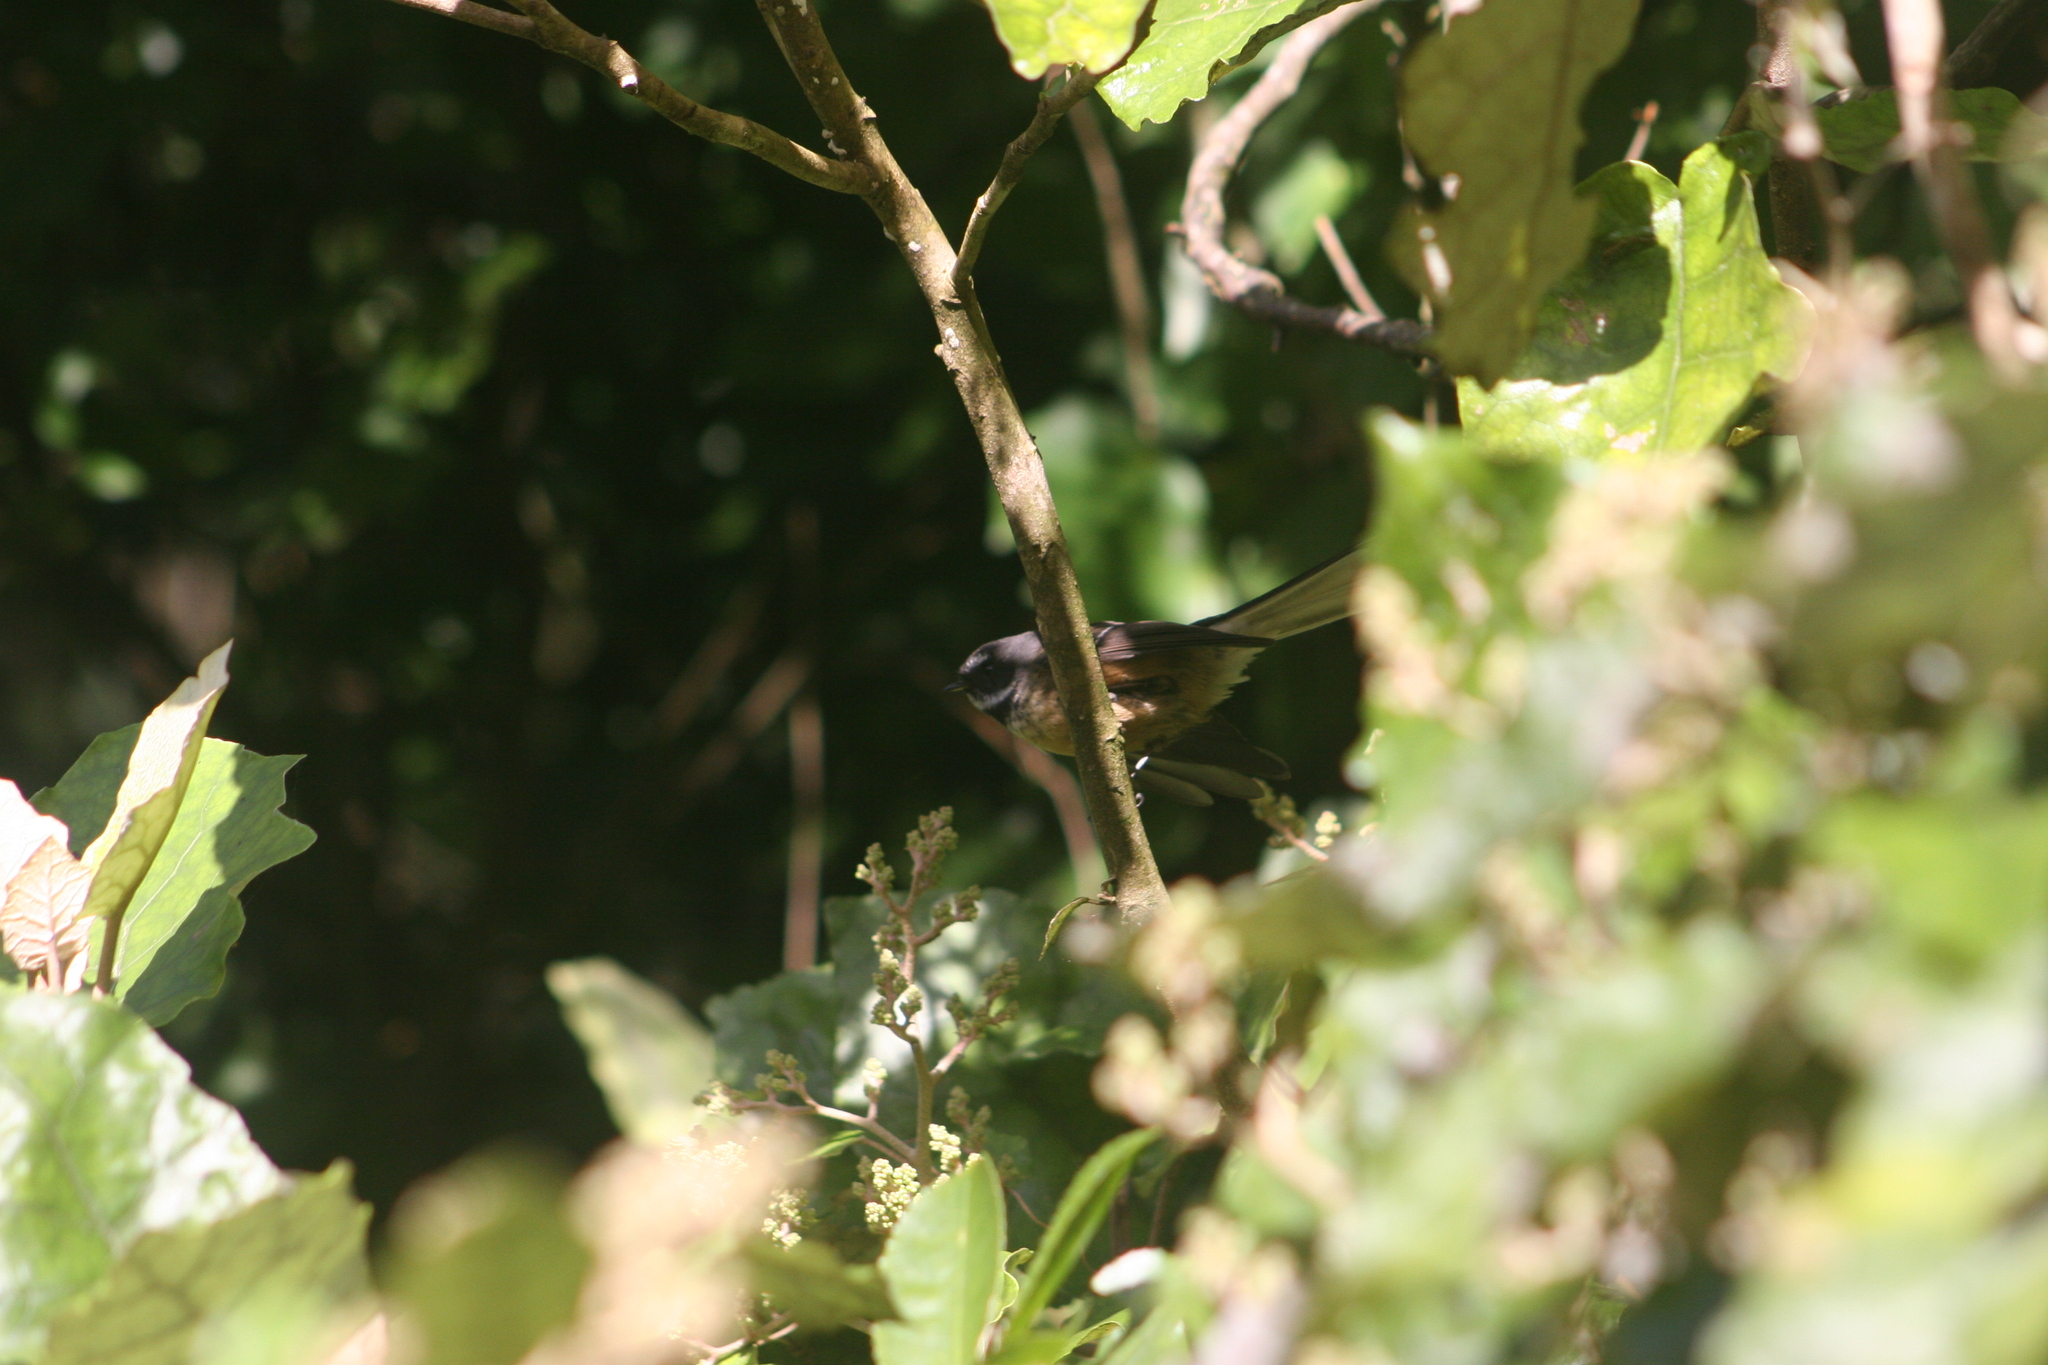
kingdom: Animalia
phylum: Chordata
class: Aves
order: Passeriformes
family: Rhipiduridae
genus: Rhipidura
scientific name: Rhipidura fuliginosa
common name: New zealand fantail
